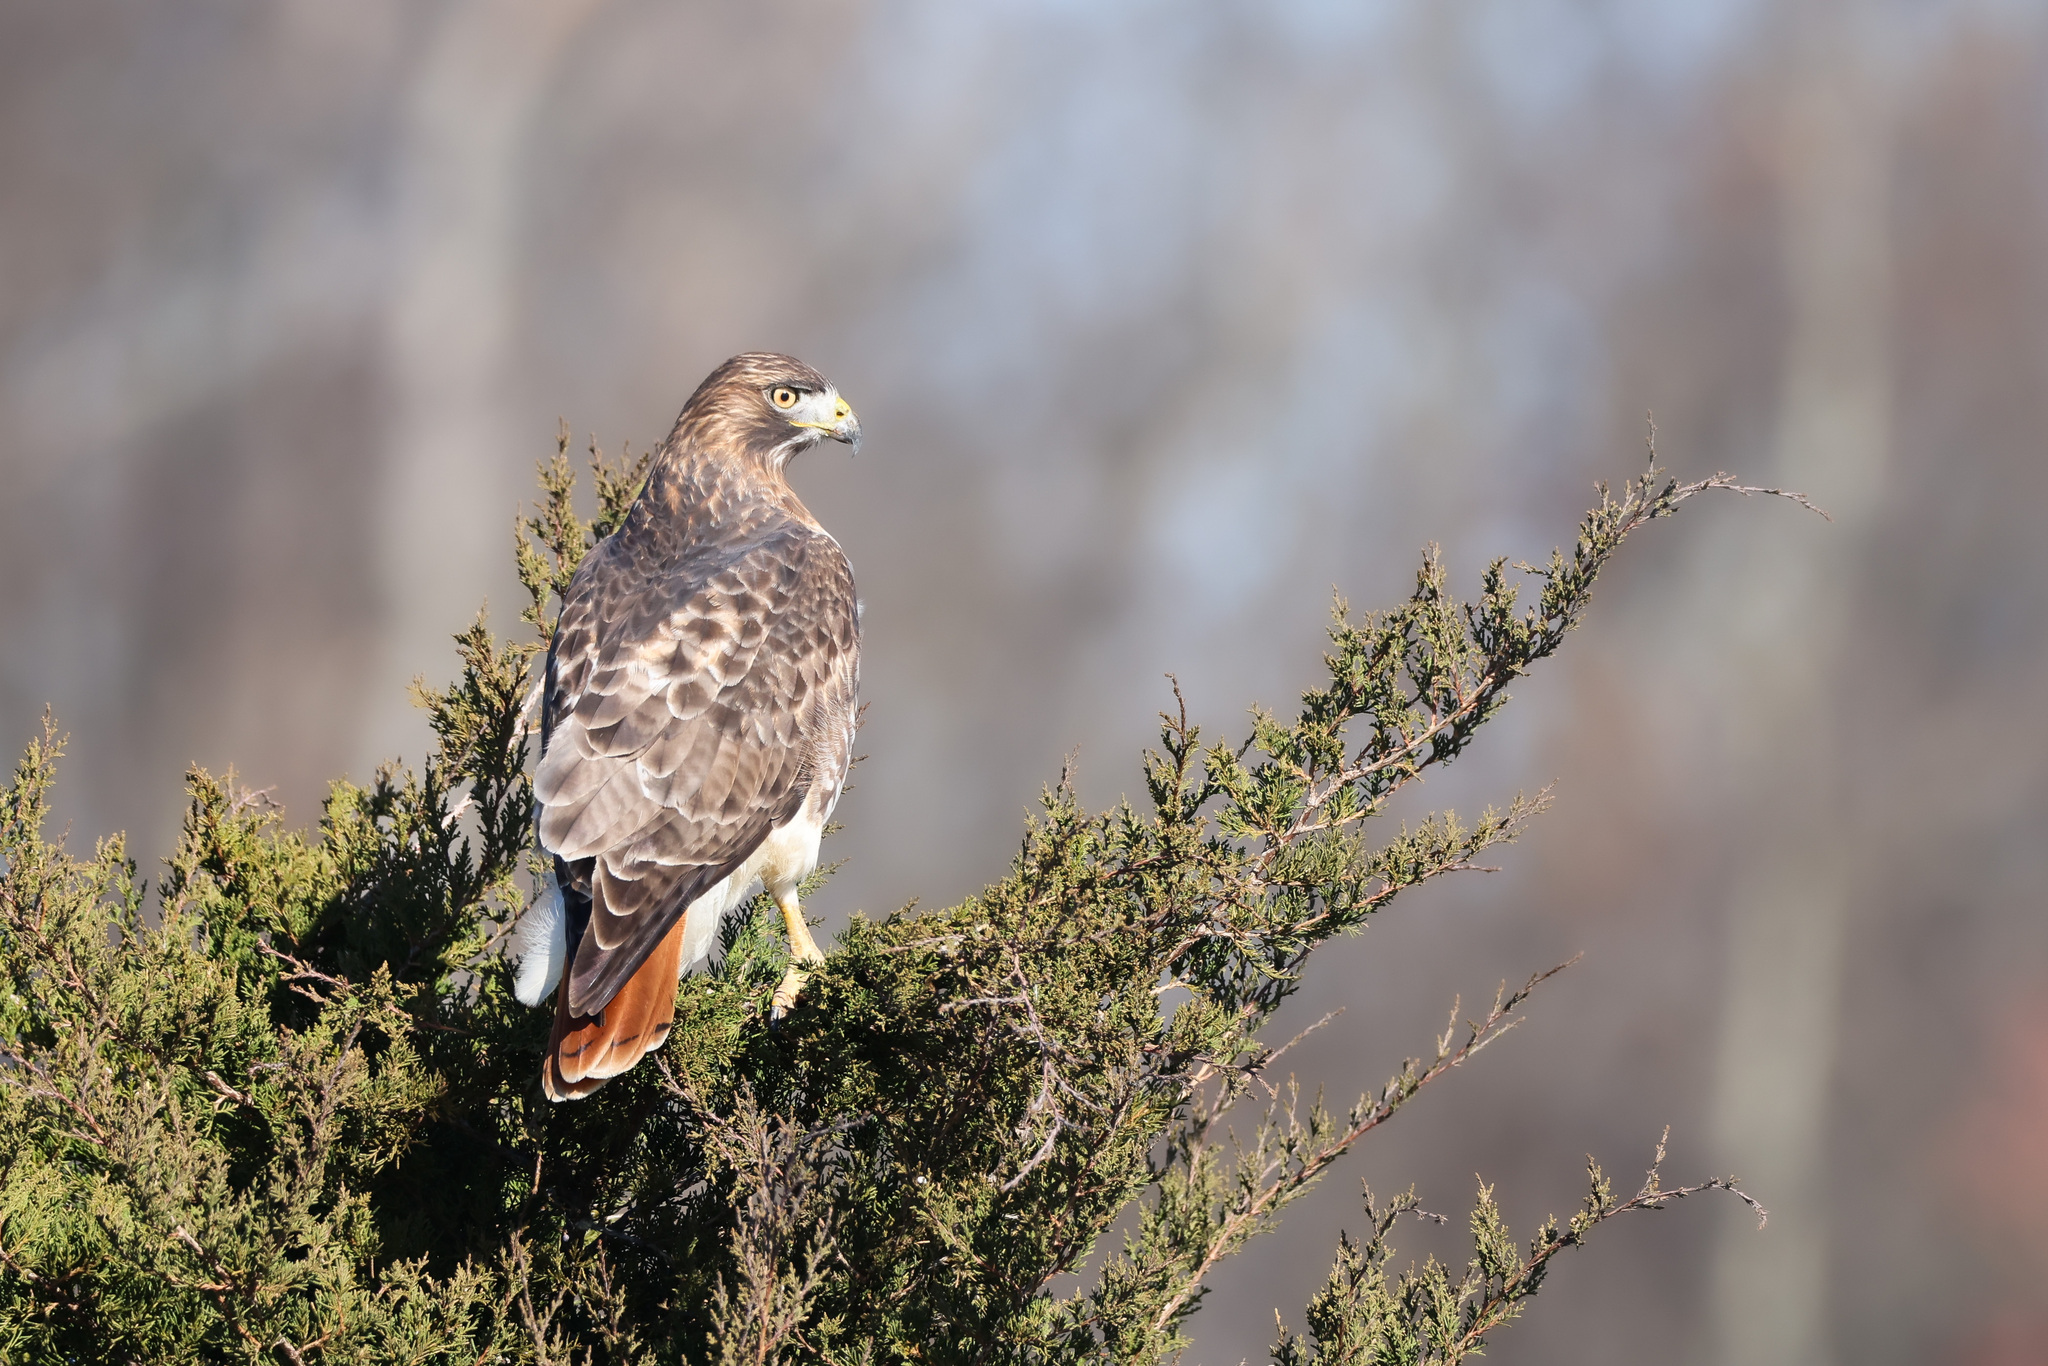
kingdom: Animalia
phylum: Chordata
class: Aves
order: Accipitriformes
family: Accipitridae
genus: Buteo
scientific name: Buteo jamaicensis
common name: Red-tailed hawk
